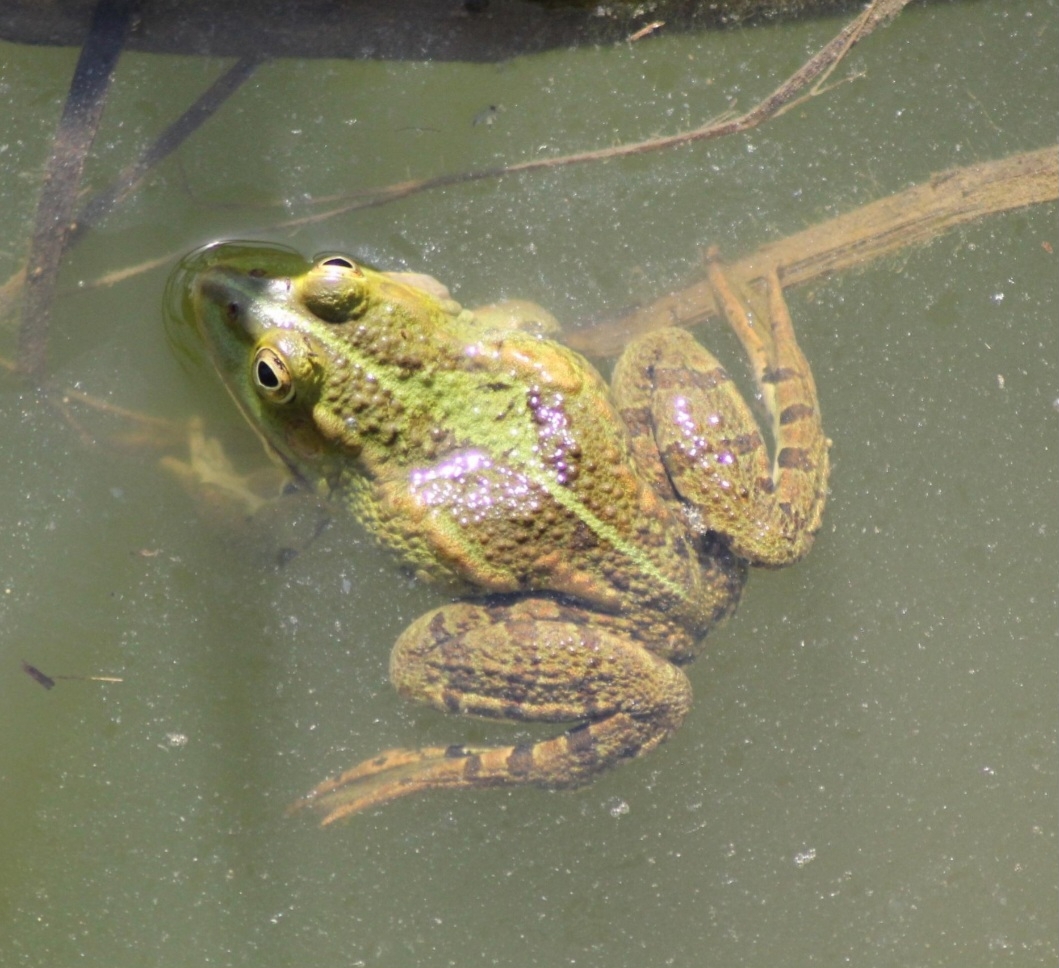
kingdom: Animalia
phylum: Chordata
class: Amphibia
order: Anura
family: Ranidae
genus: Pelophylax
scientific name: Pelophylax
